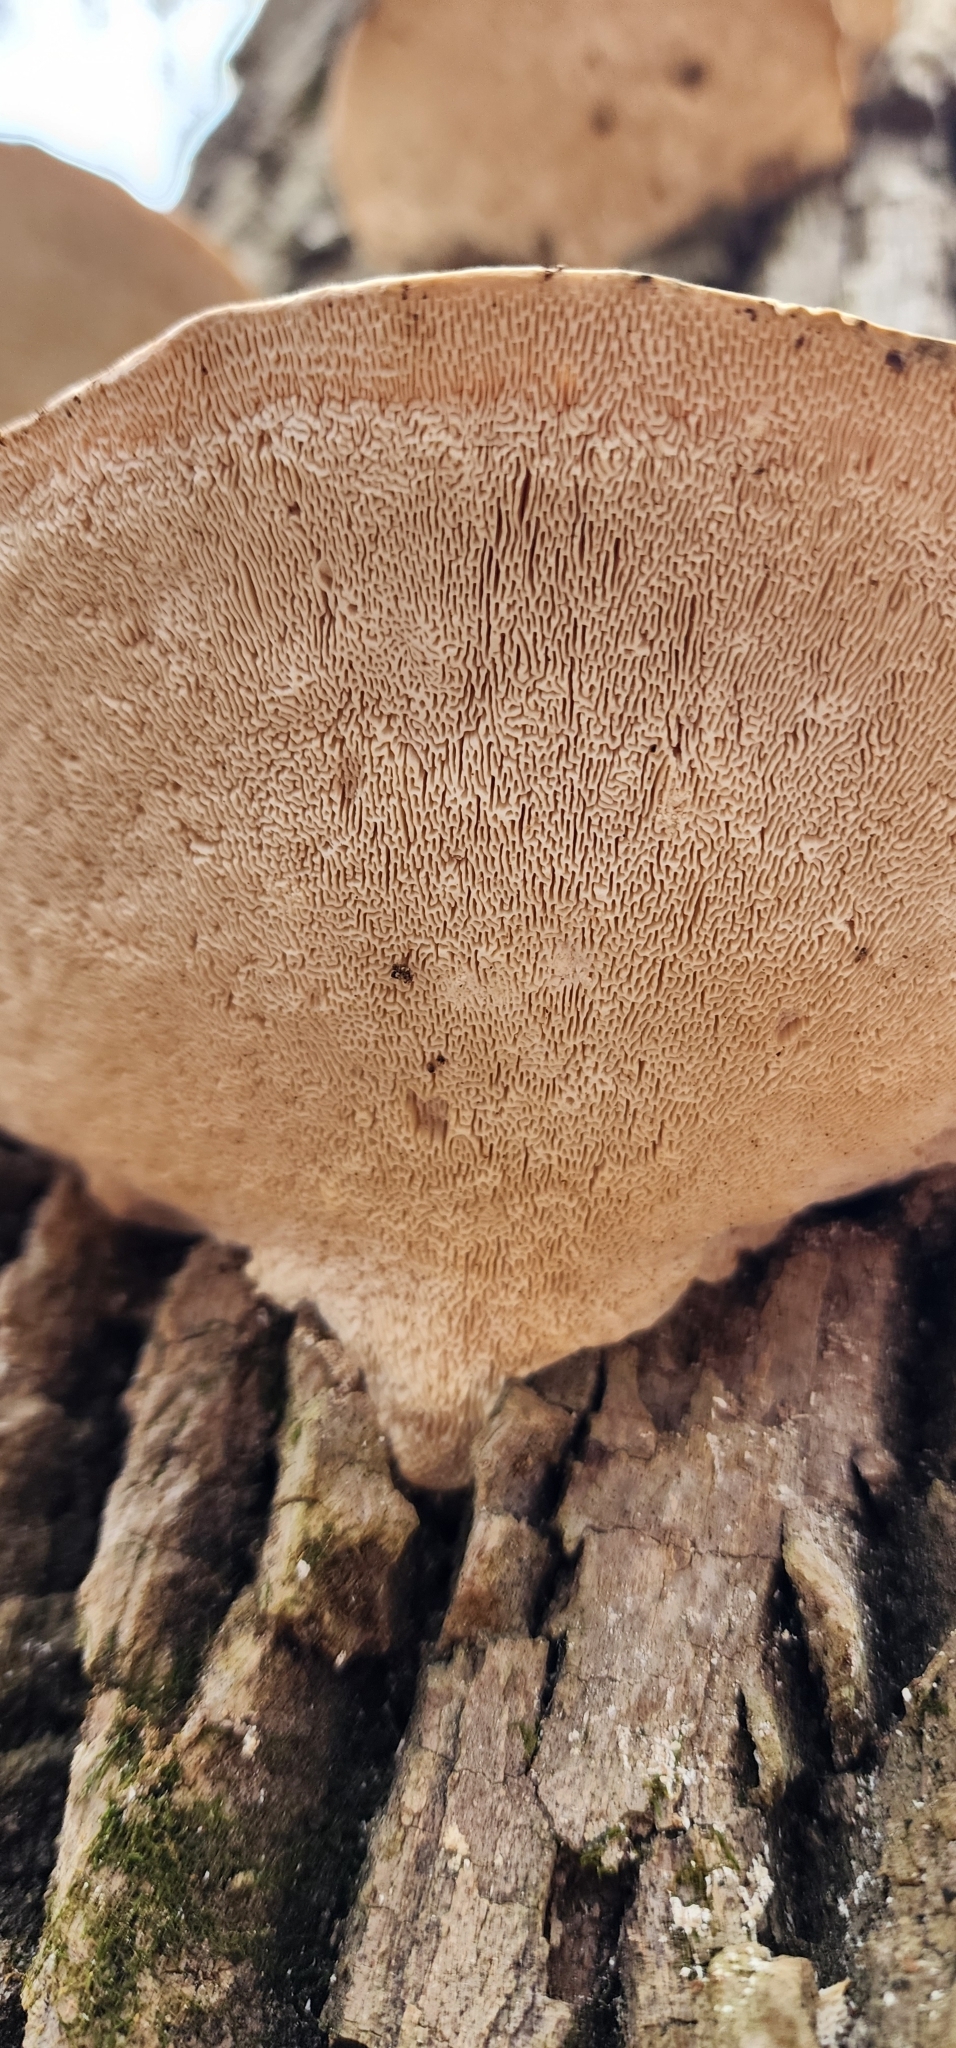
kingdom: Fungi
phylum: Basidiomycota
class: Agaricomycetes
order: Polyporales
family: Fomitopsidaceae
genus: Fomitopsis
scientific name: Fomitopsis
